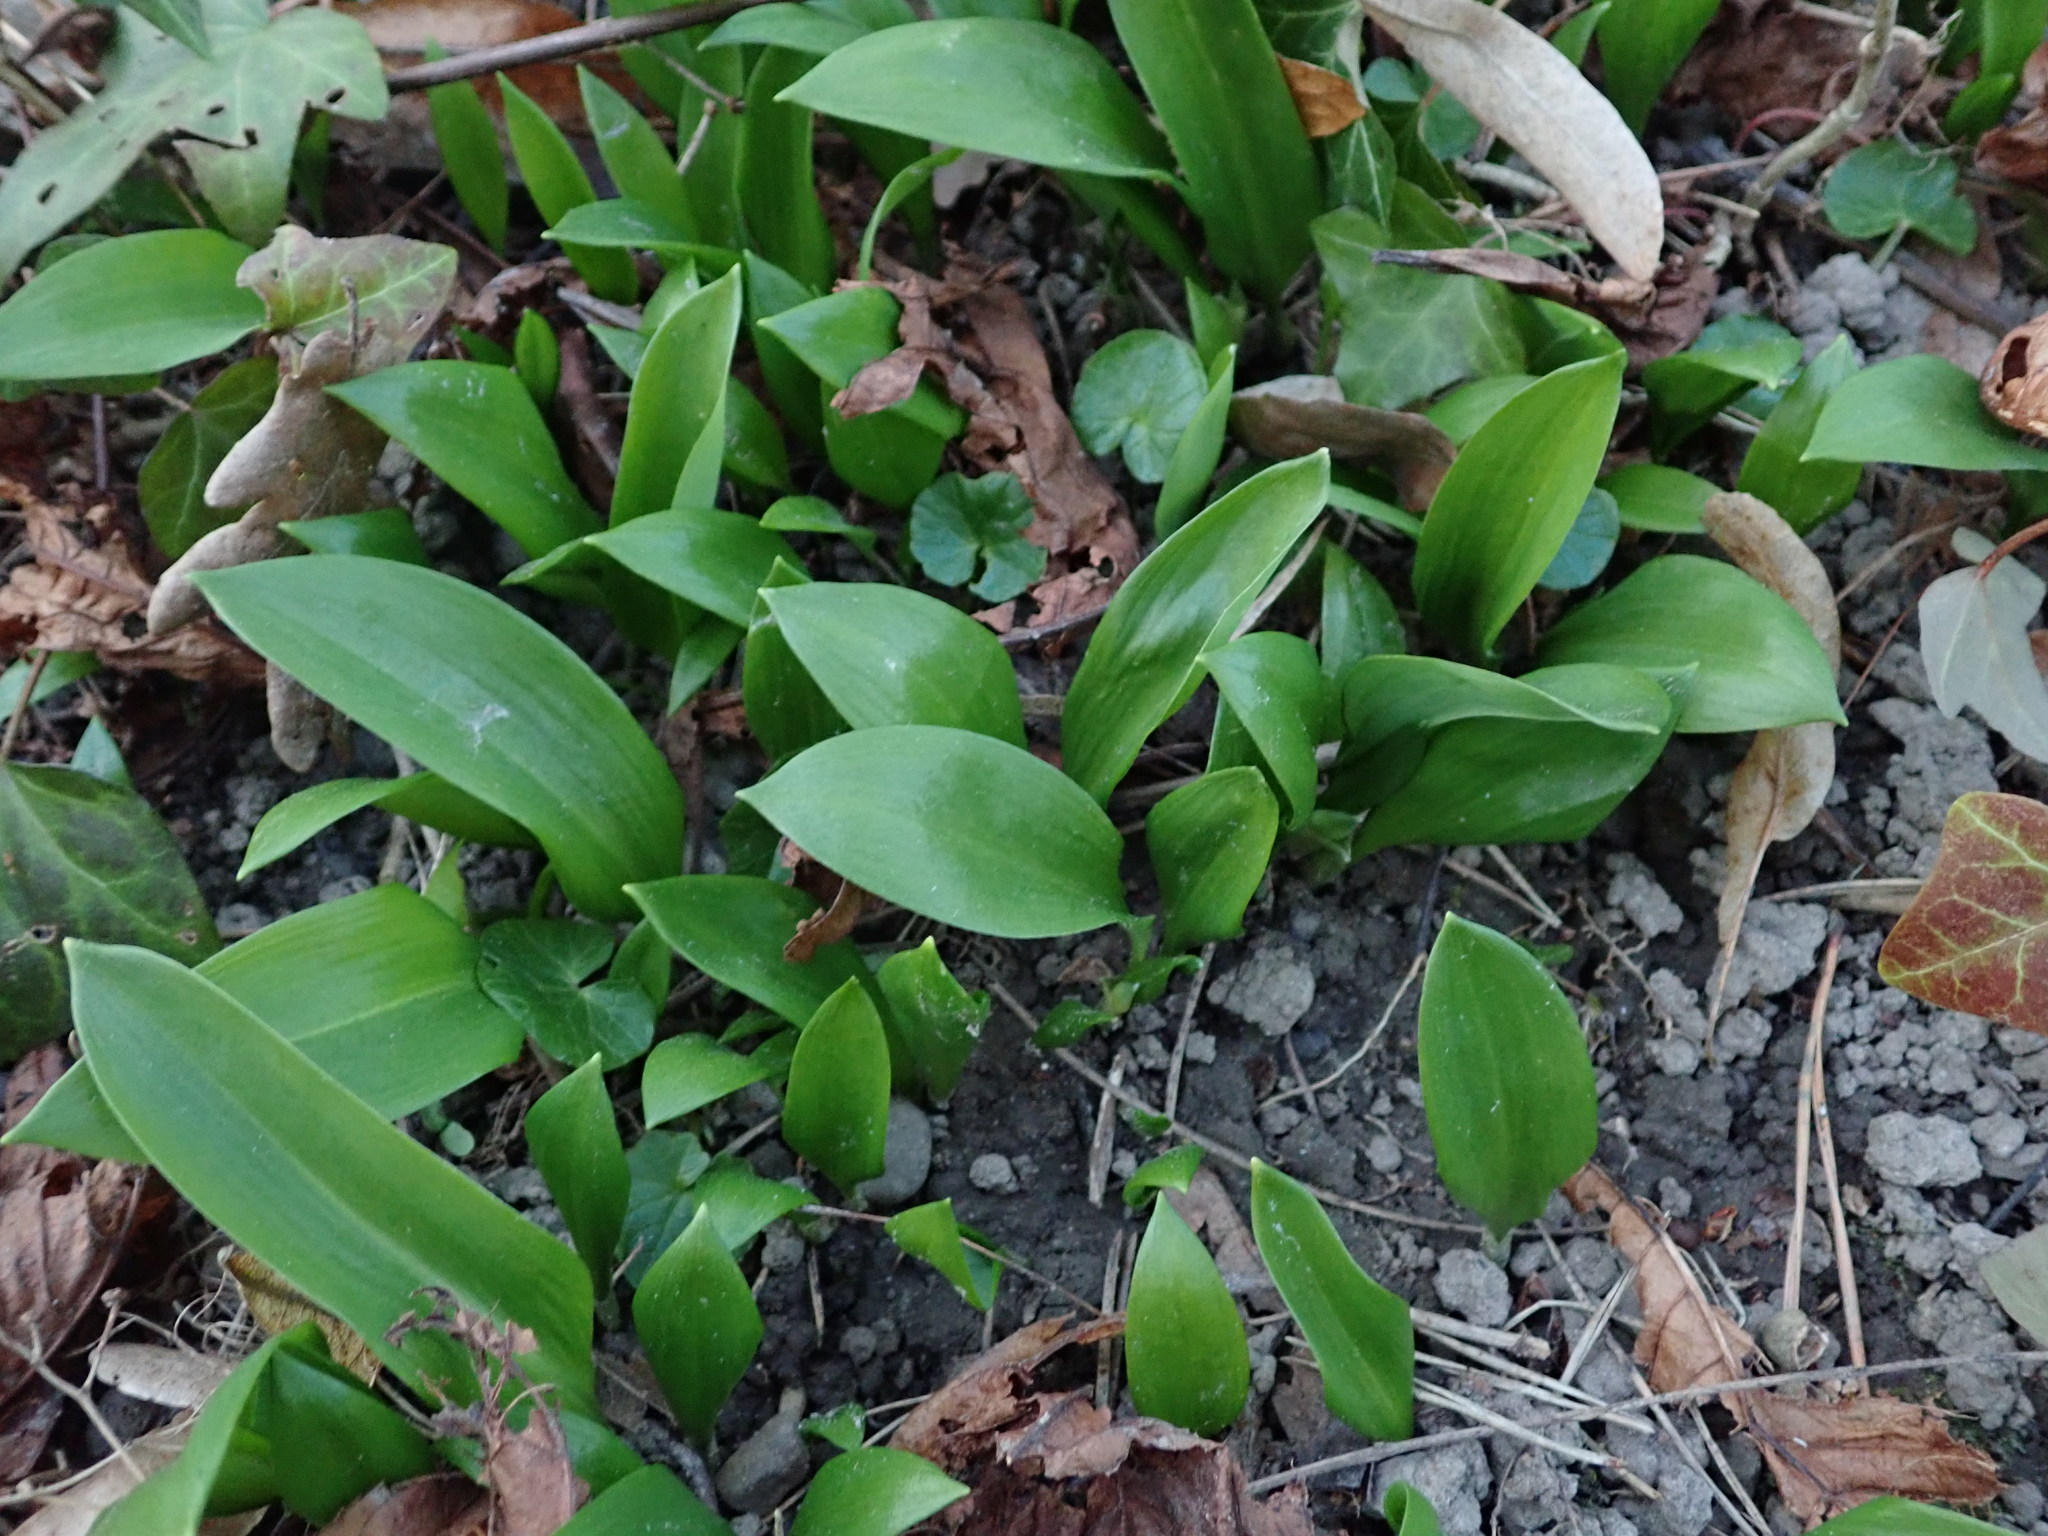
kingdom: Plantae
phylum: Tracheophyta
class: Liliopsida
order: Asparagales
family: Amaryllidaceae
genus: Allium
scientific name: Allium ursinum
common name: Ramsons
